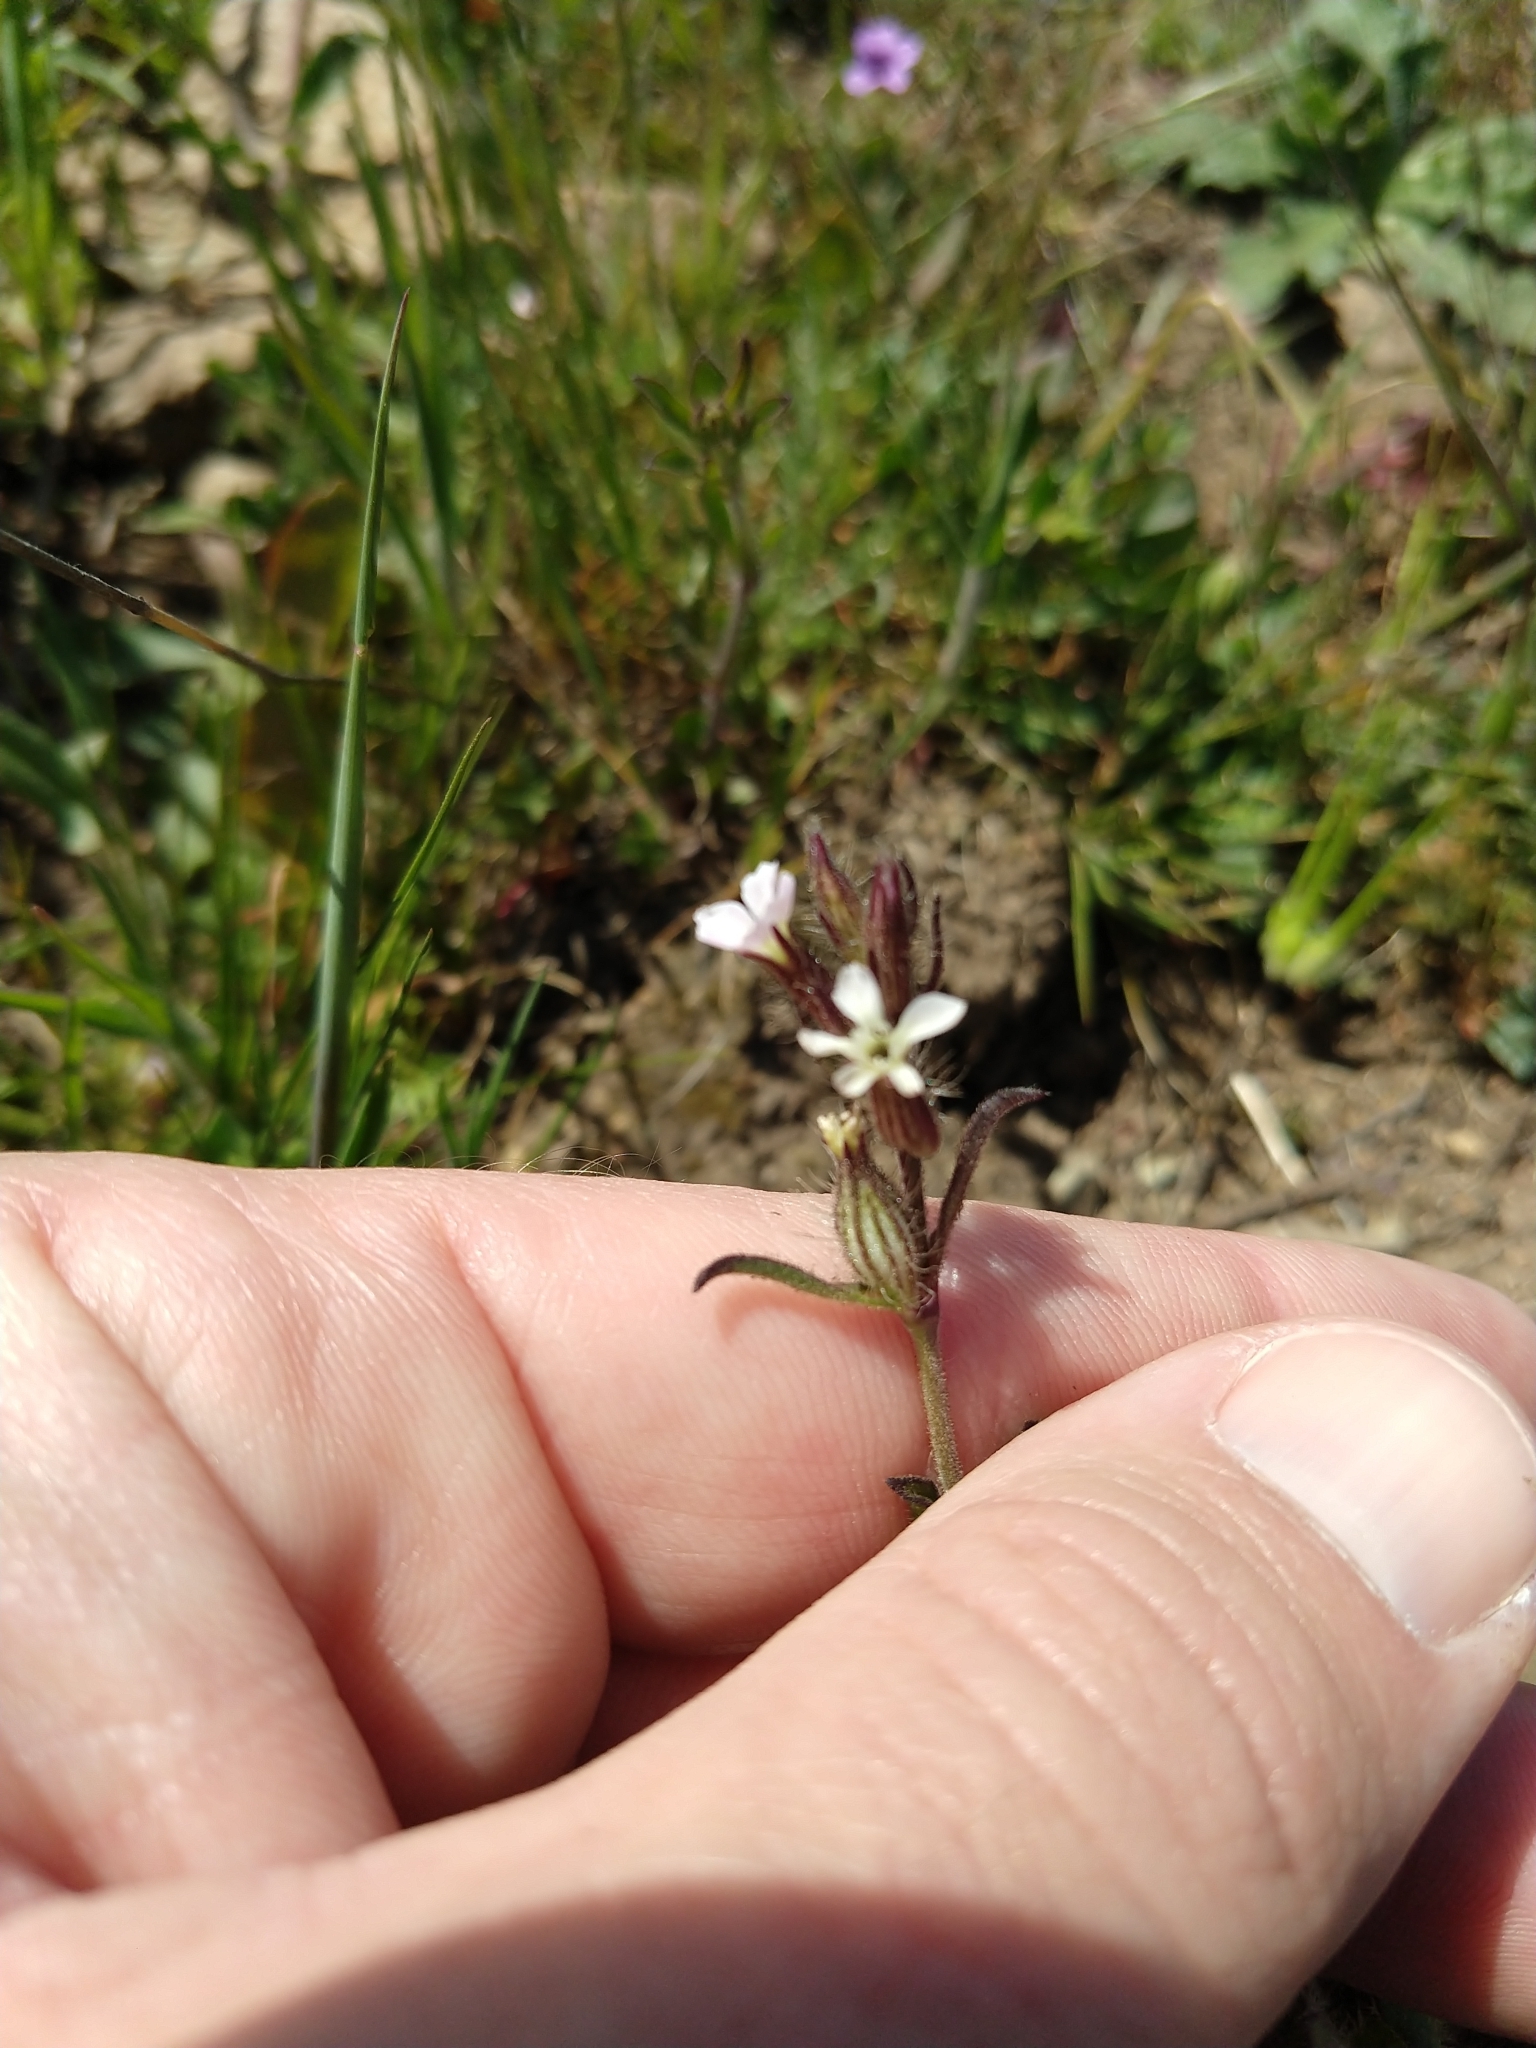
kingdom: Plantae
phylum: Tracheophyta
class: Magnoliopsida
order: Caryophyllales
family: Caryophyllaceae
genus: Silene
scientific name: Silene gallica
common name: Small-flowered catchfly
